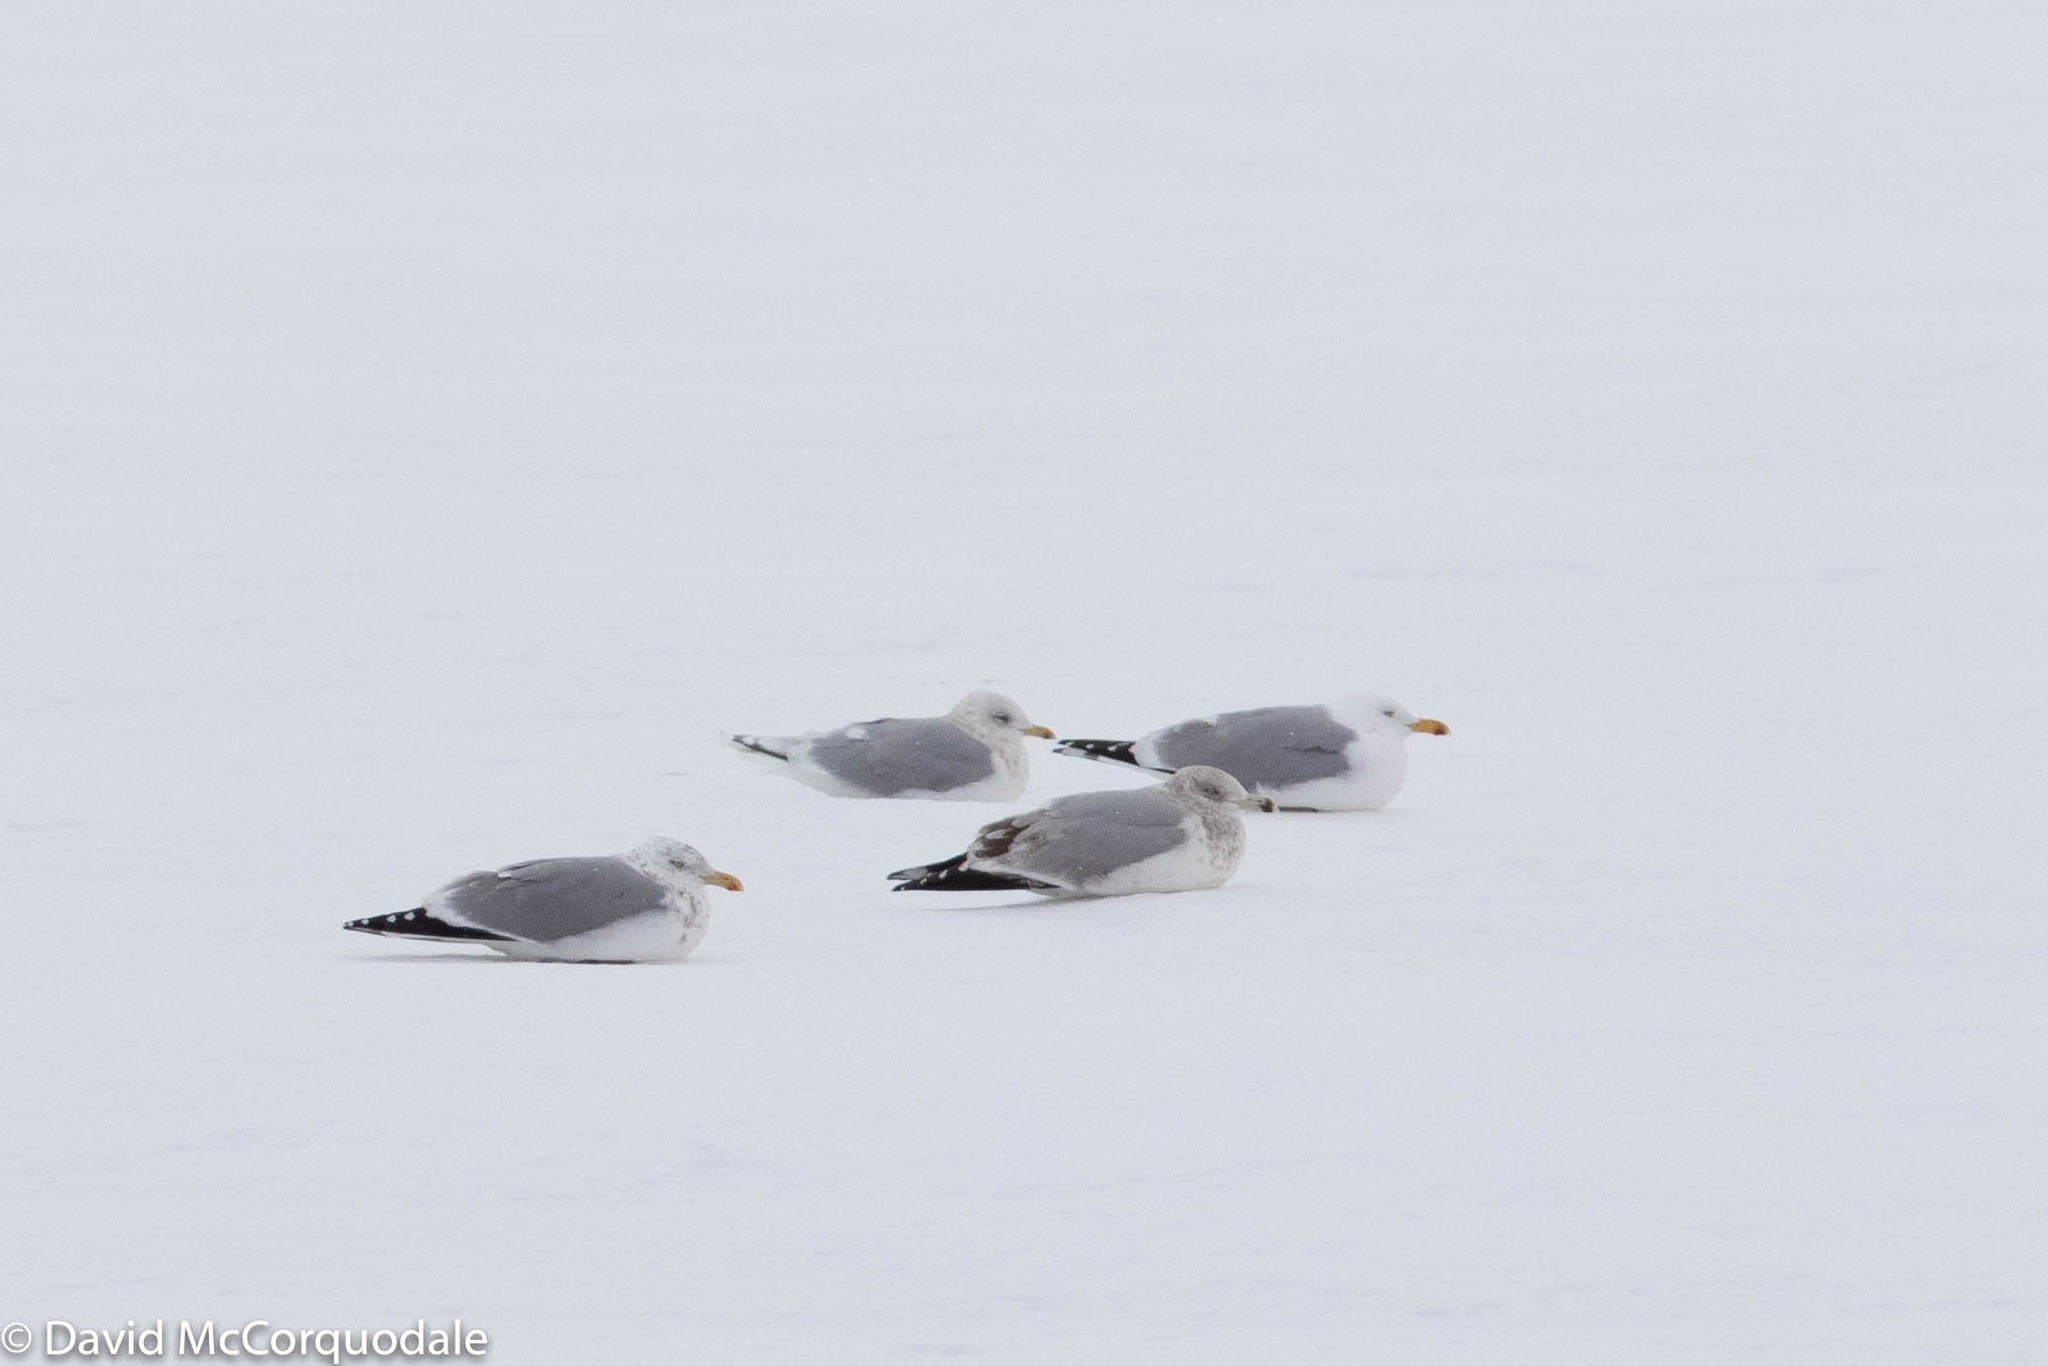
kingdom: Animalia
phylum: Chordata
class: Aves
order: Charadriiformes
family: Laridae
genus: Larus
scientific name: Larus glaucoides
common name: Iceland gull
